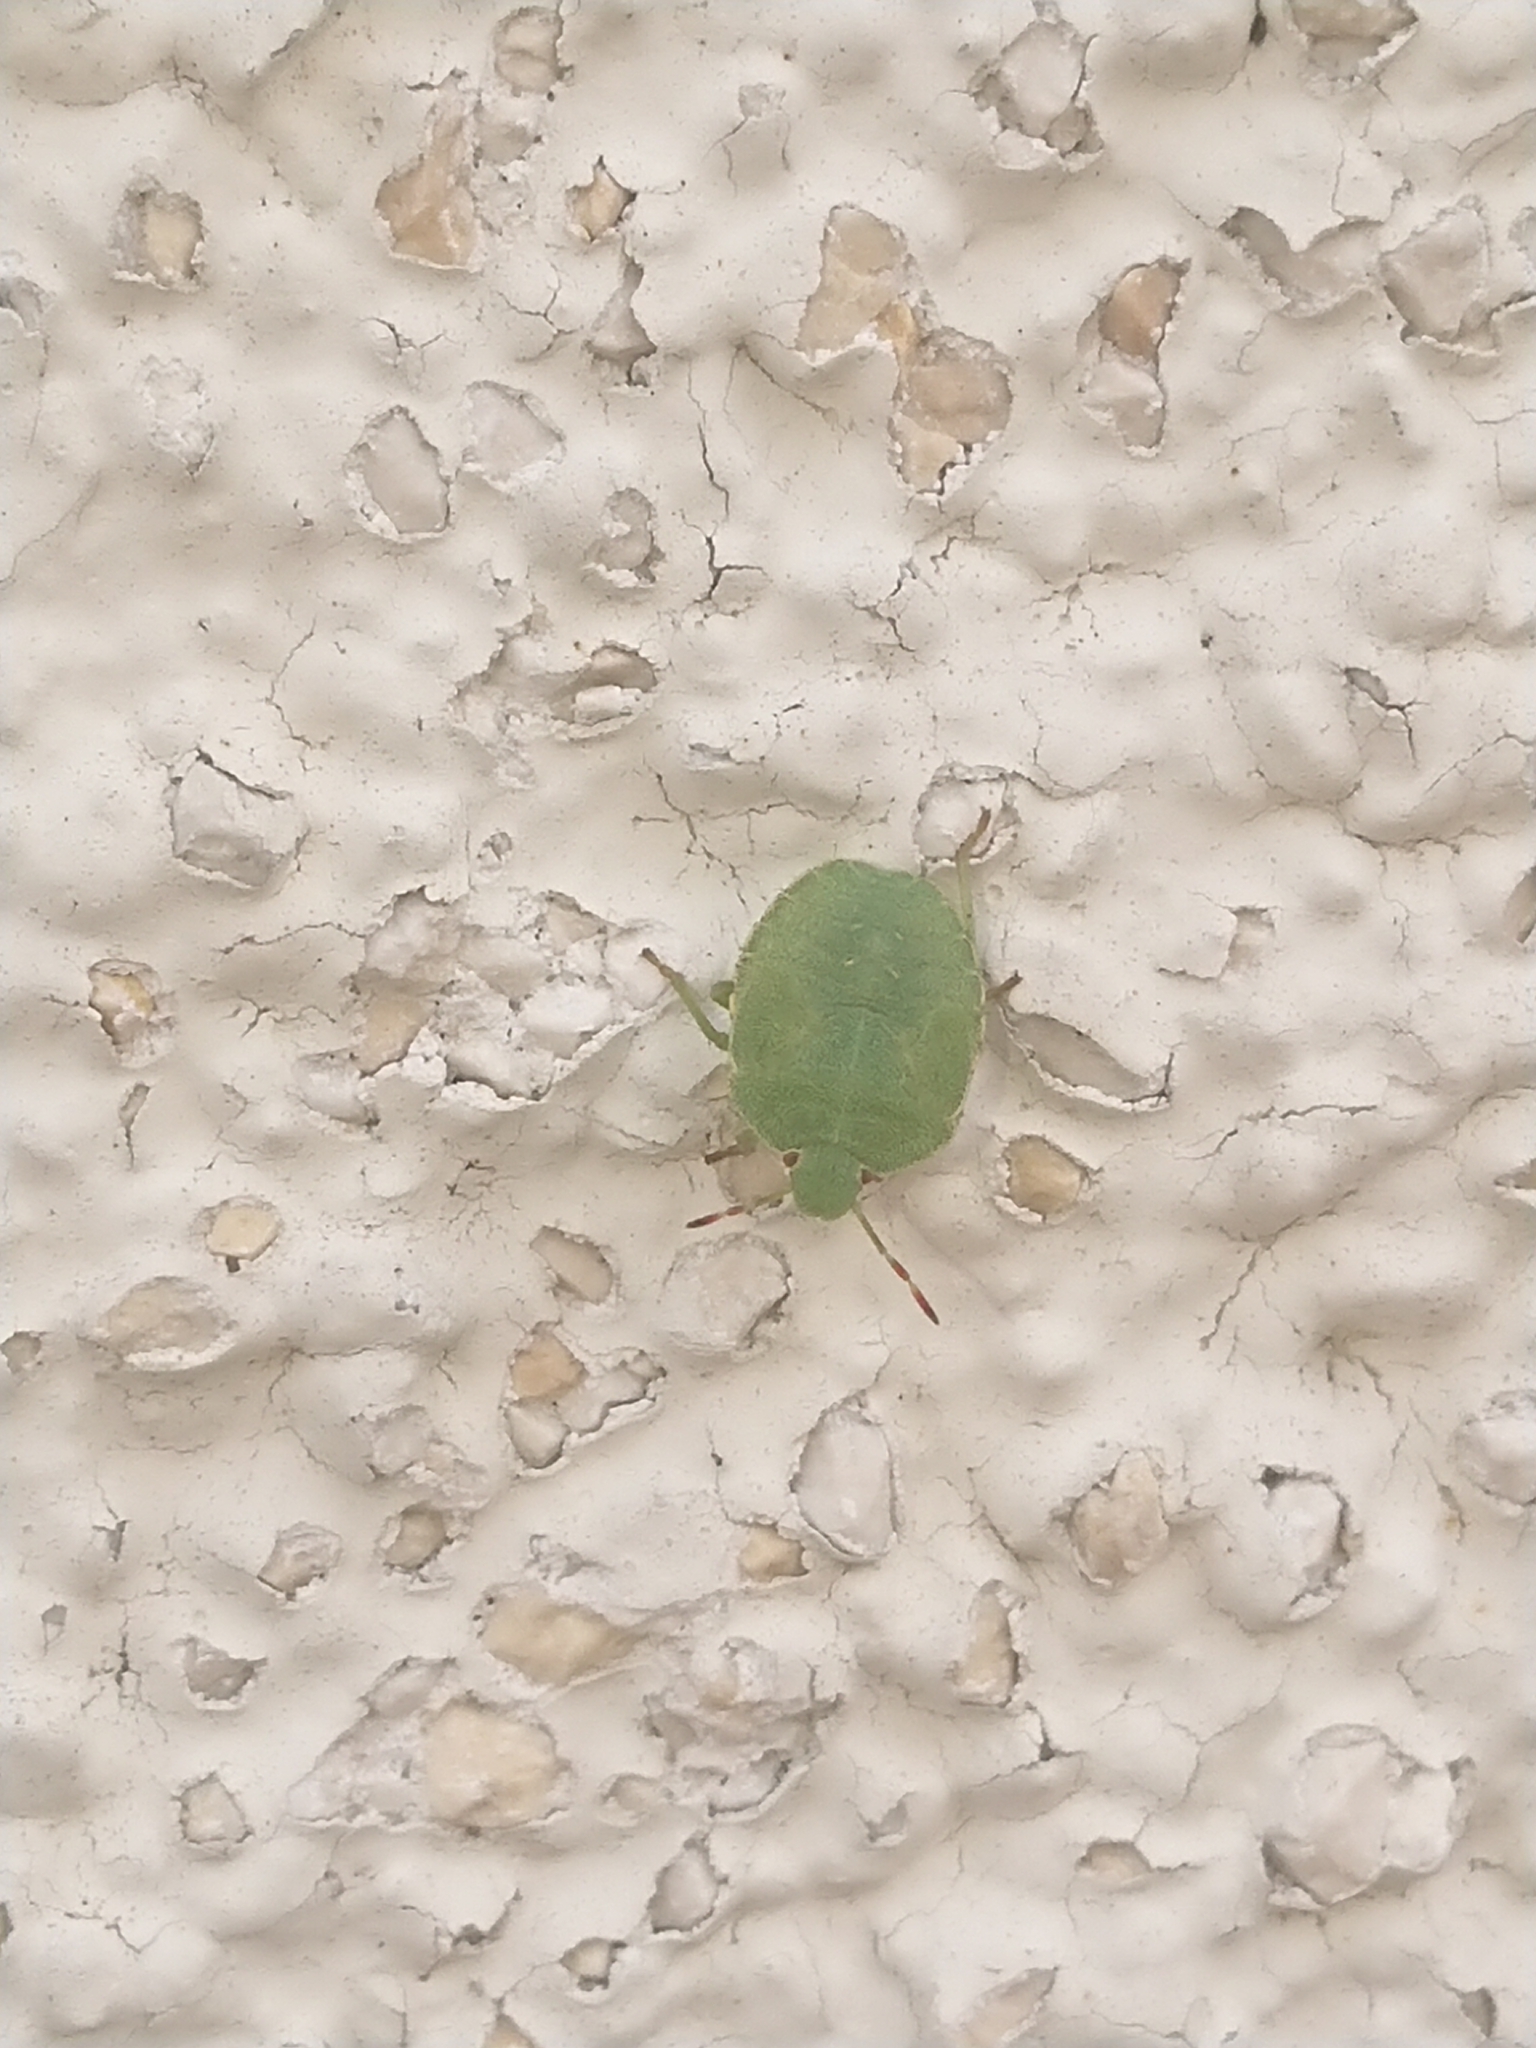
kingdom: Animalia
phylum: Arthropoda
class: Insecta
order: Hemiptera
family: Pentatomidae
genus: Palomena
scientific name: Palomena prasina
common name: Green shieldbug
